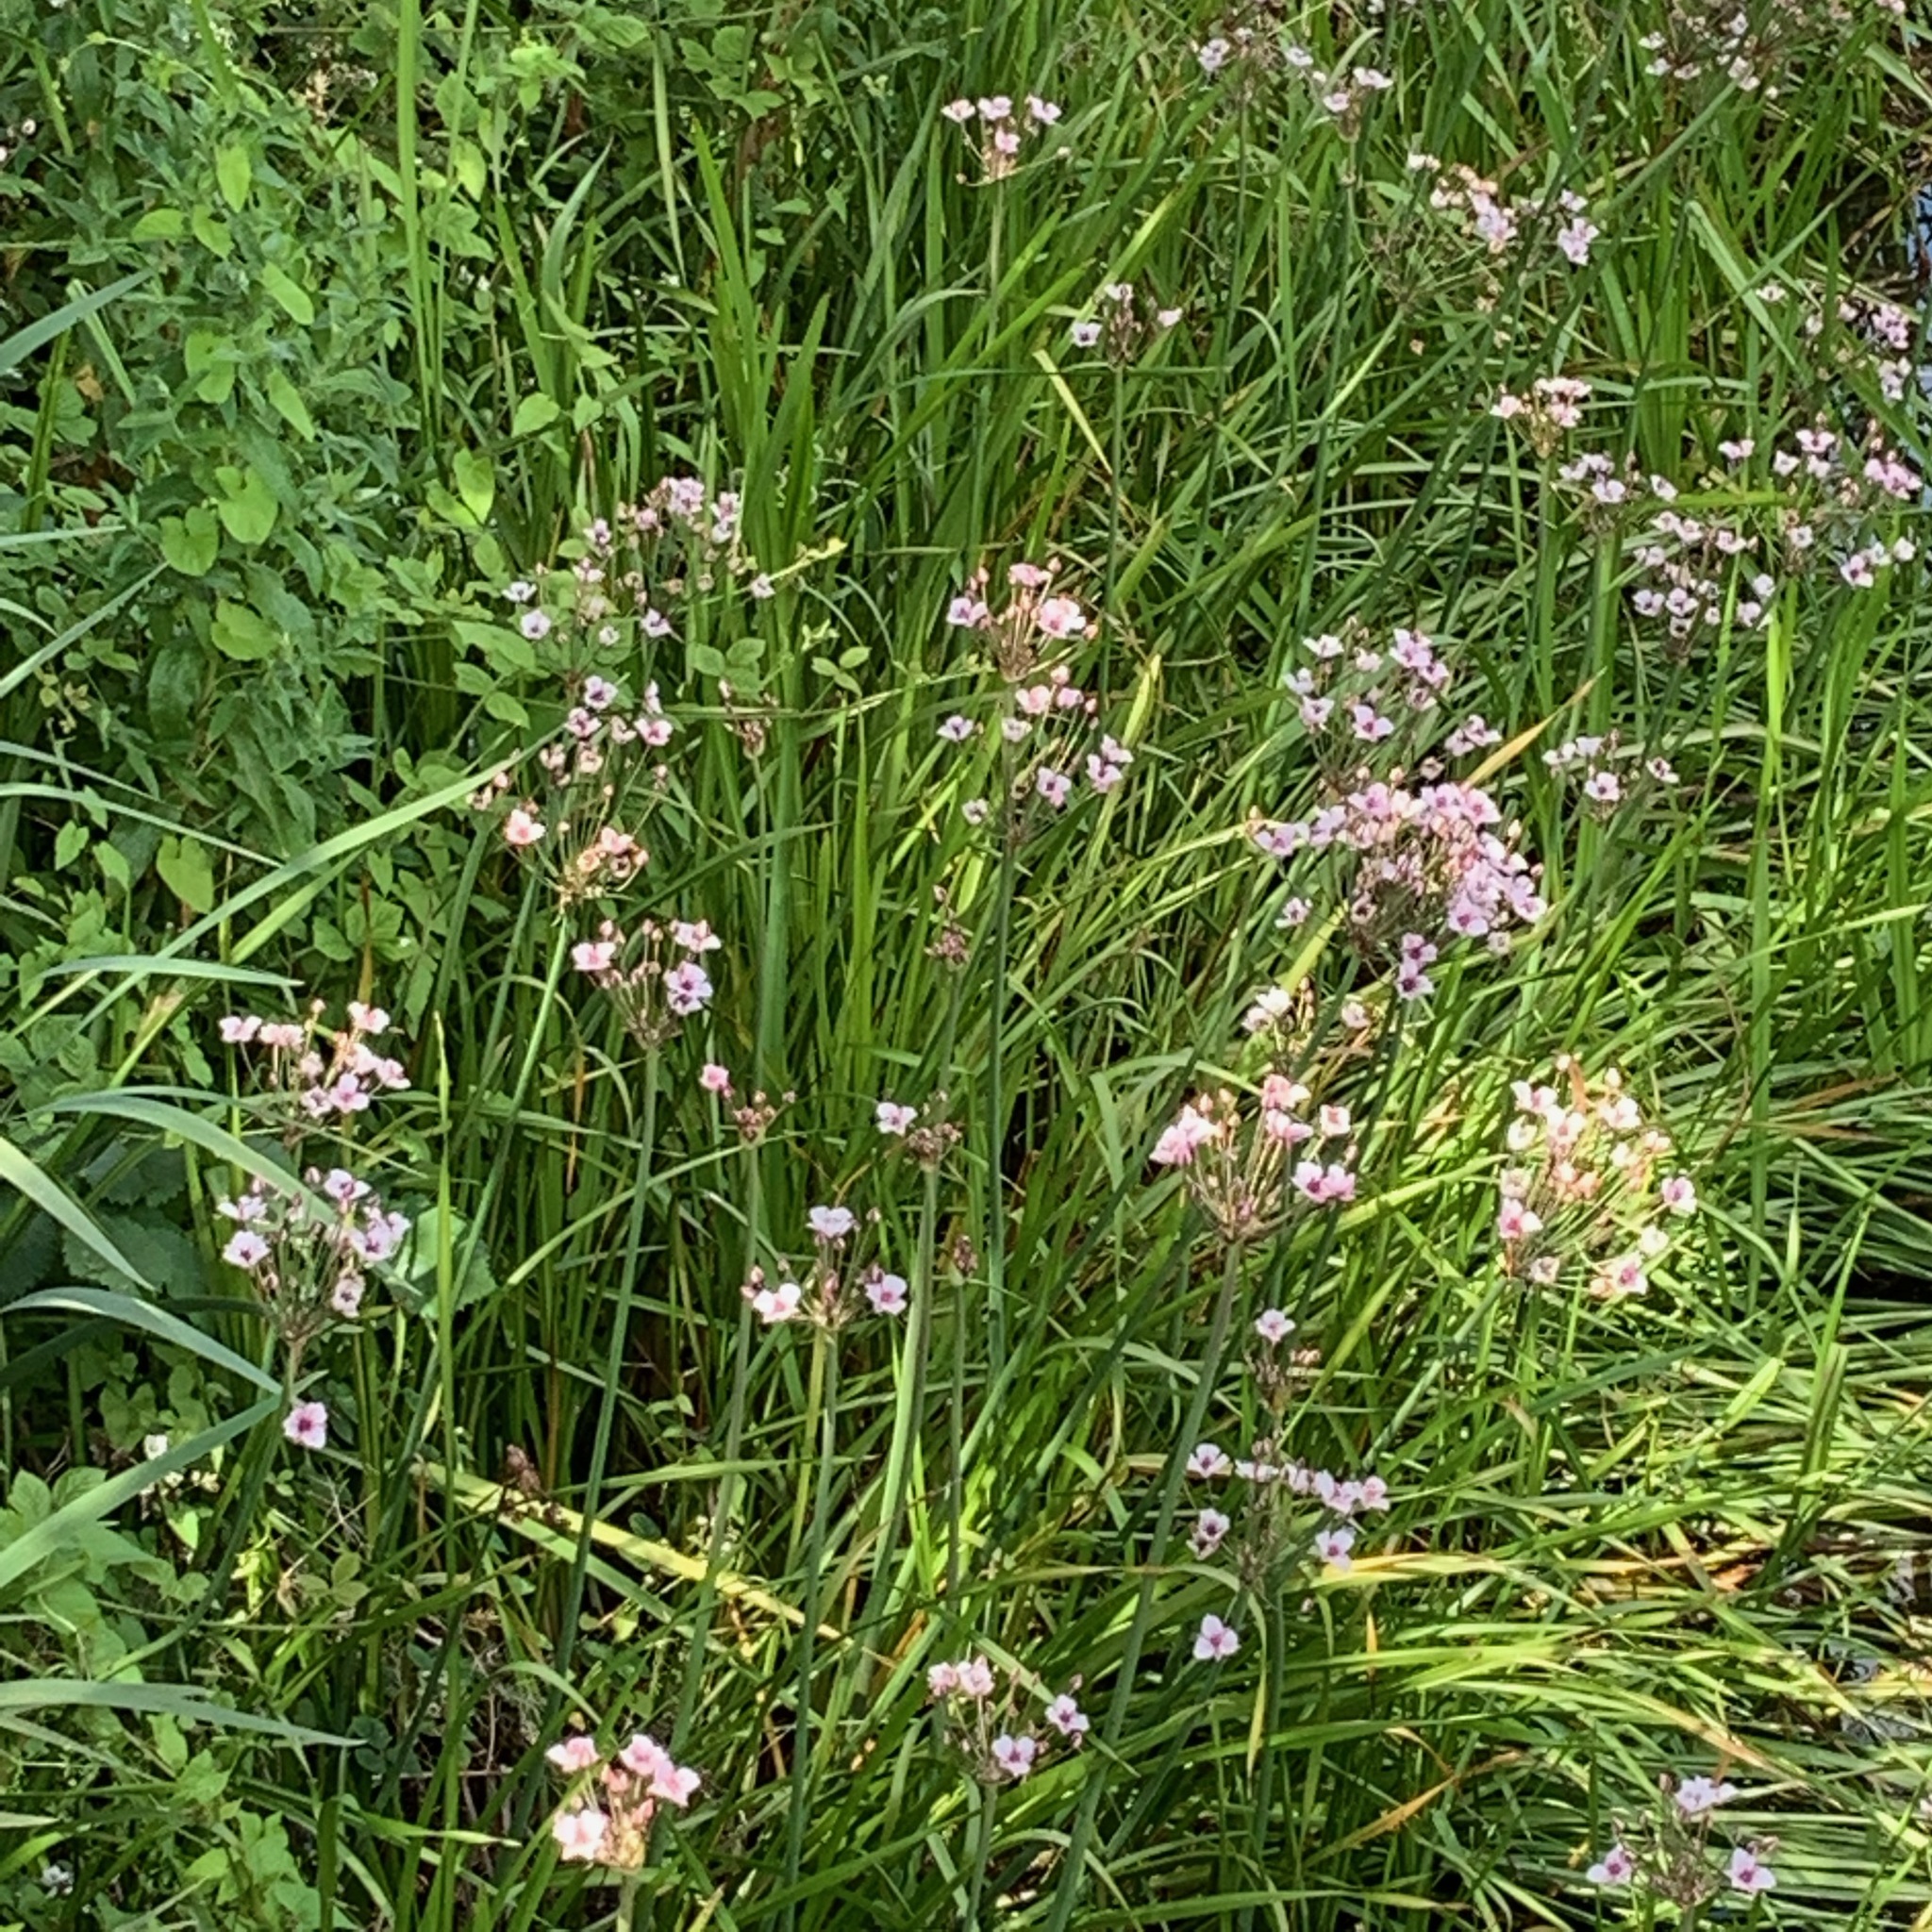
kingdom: Plantae
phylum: Tracheophyta
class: Liliopsida
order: Alismatales
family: Butomaceae
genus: Butomus
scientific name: Butomus umbellatus
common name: Flowering-rush
